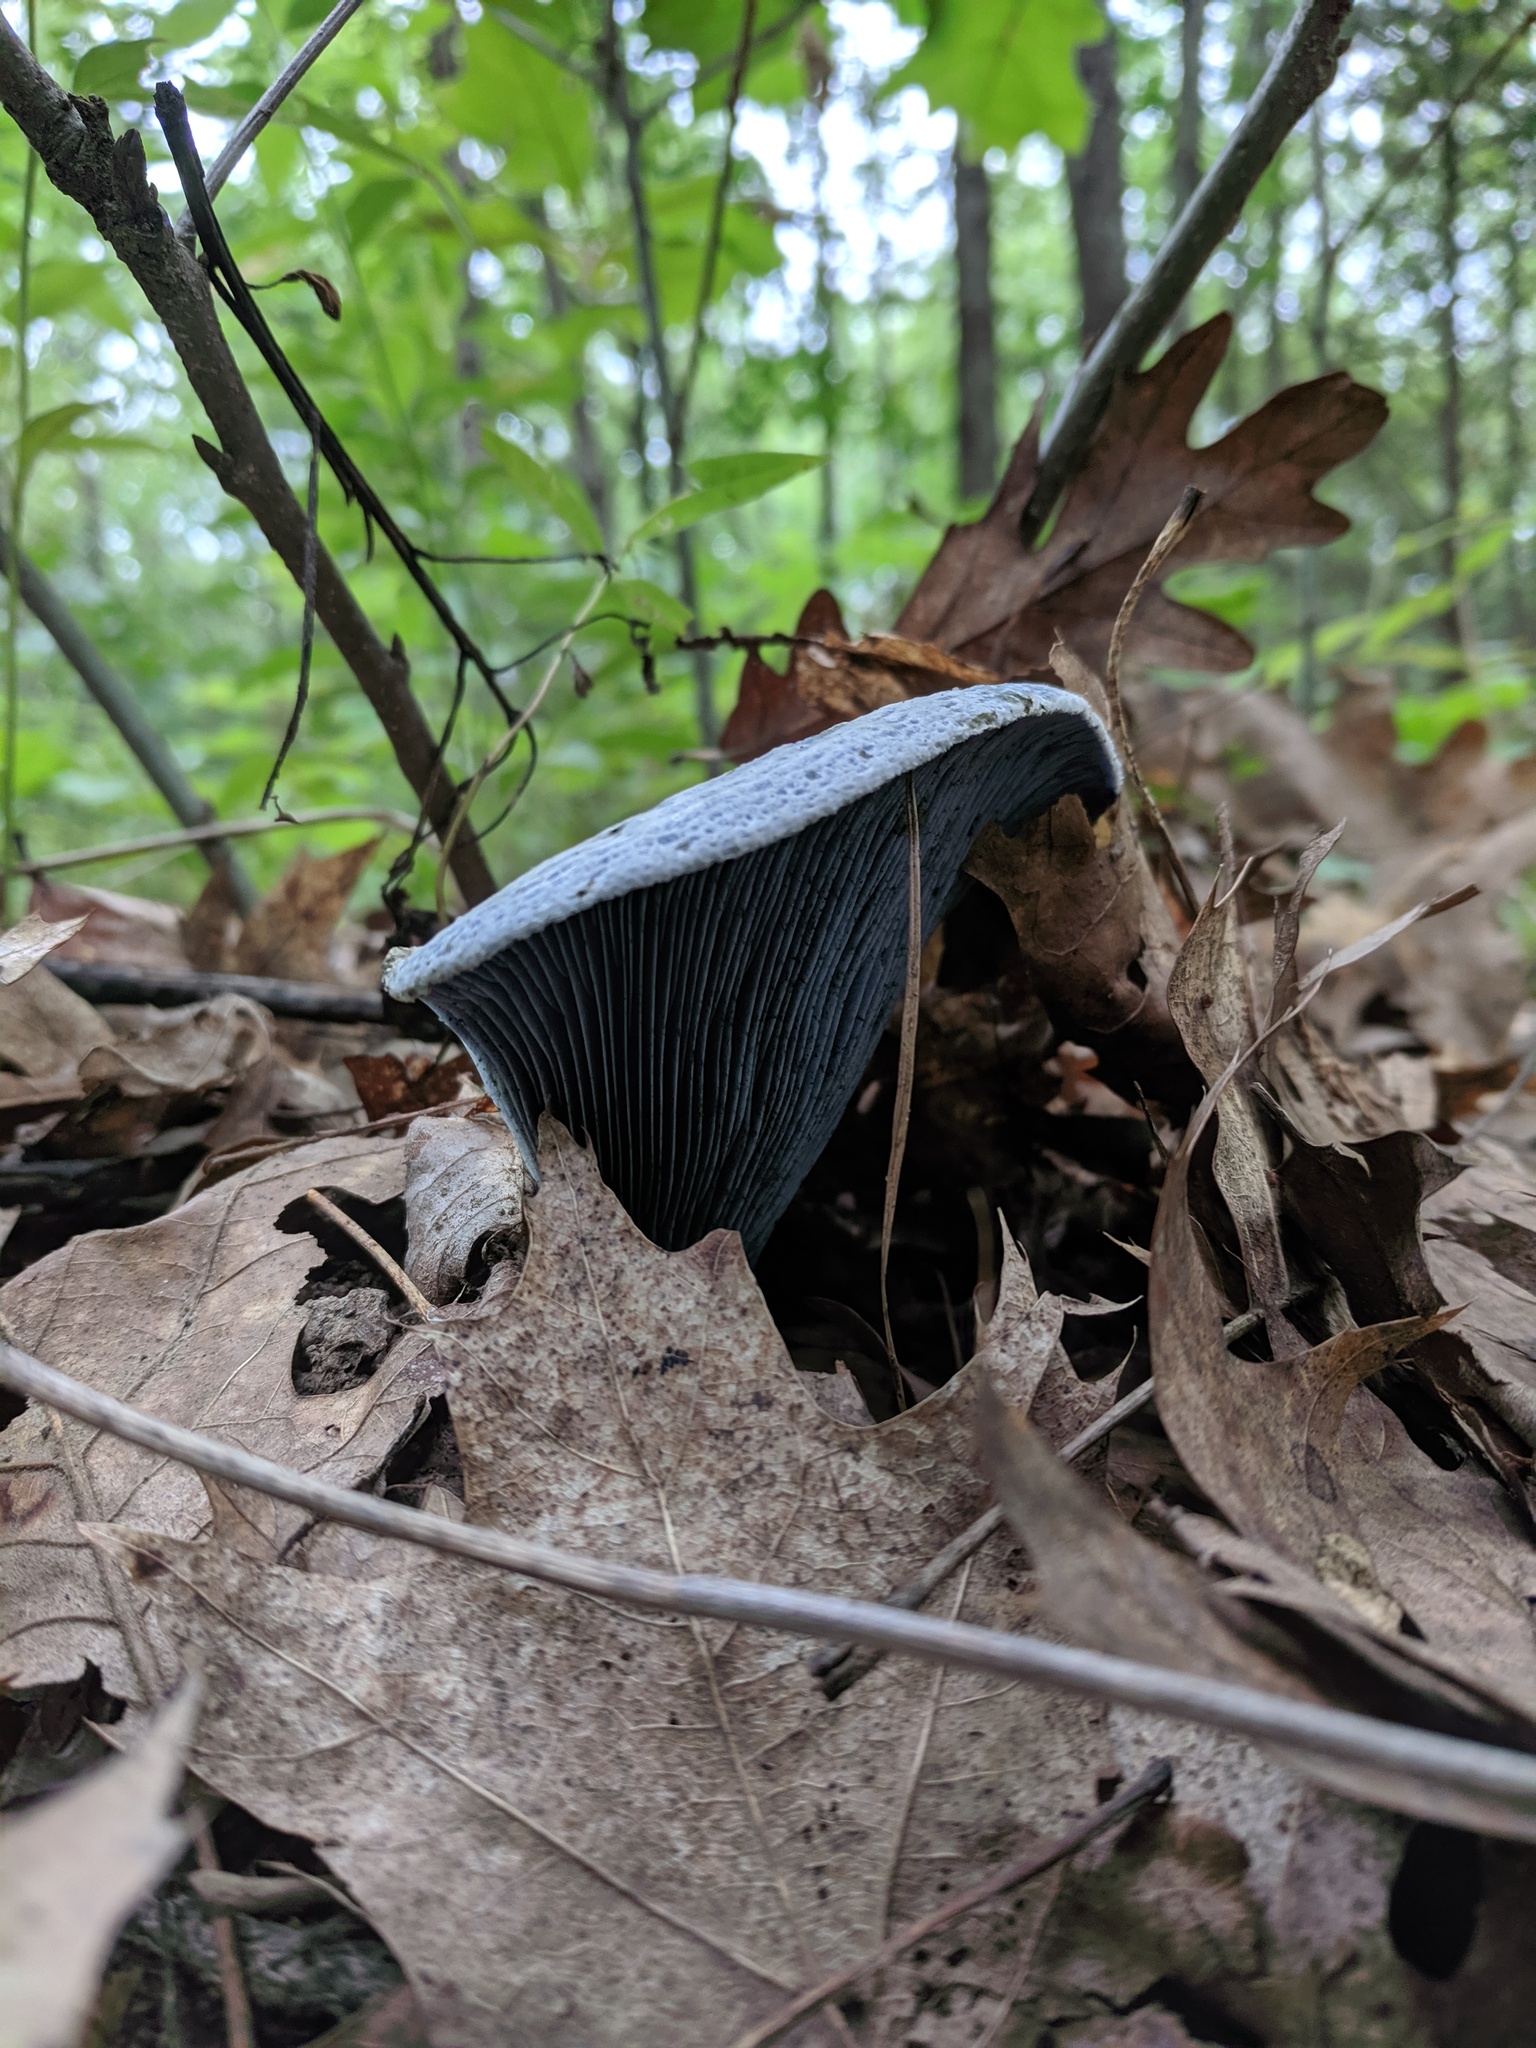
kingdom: Fungi
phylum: Basidiomycota
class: Agaricomycetes
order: Russulales
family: Russulaceae
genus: Lactarius
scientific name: Lactarius indigo
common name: Indigo milk cap
